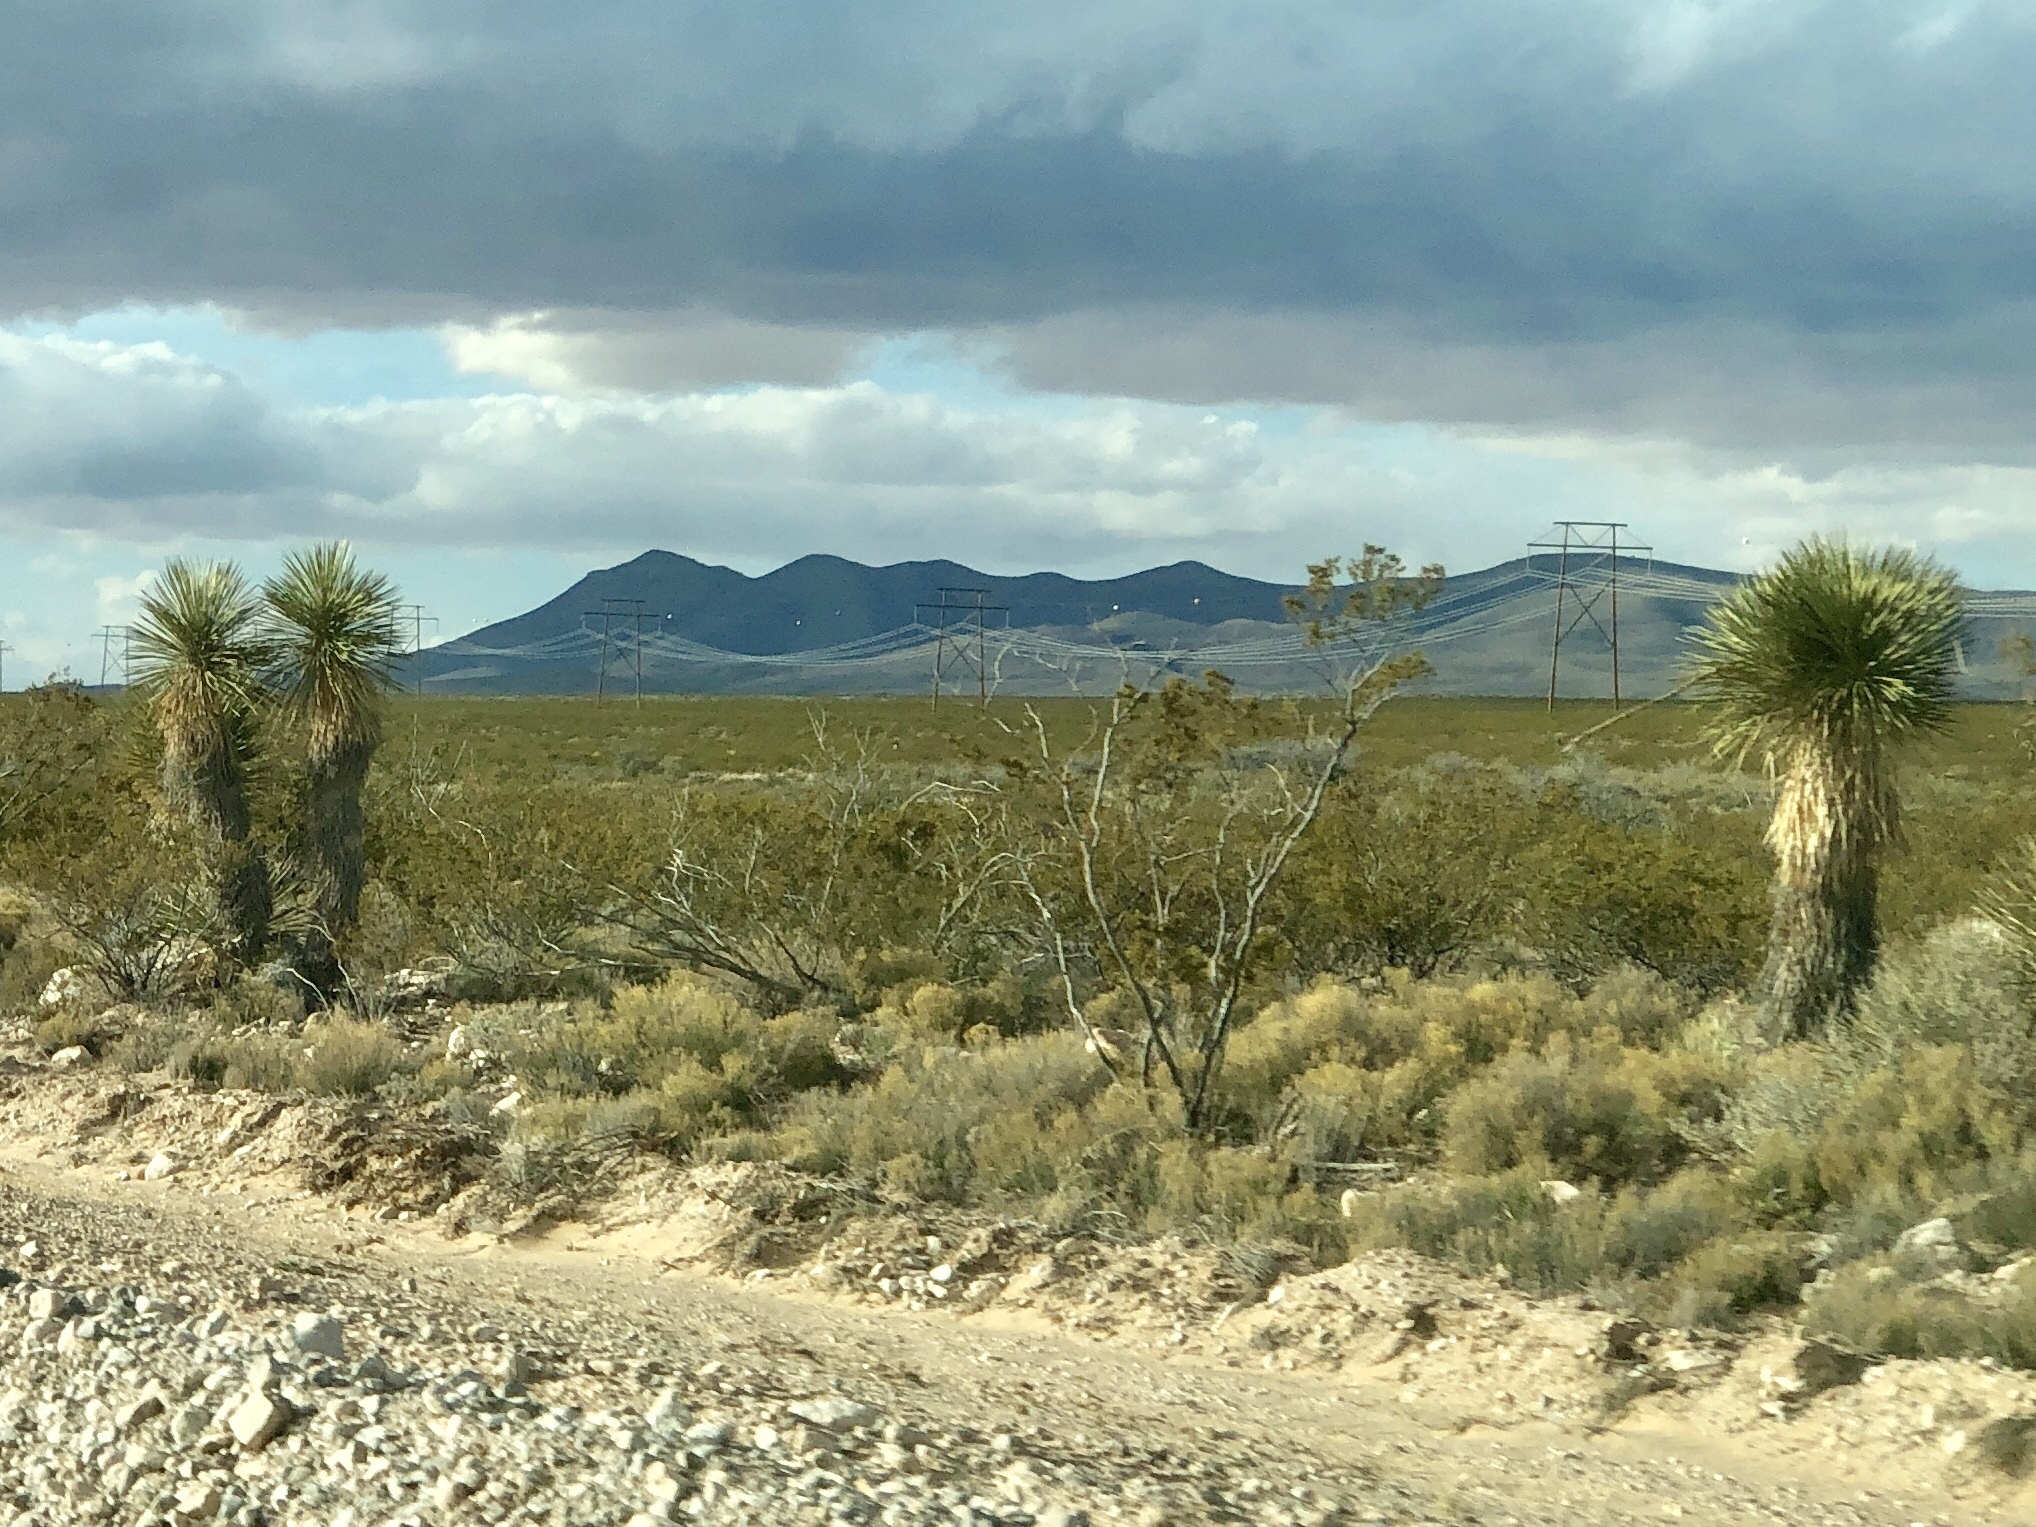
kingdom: Plantae
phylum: Tracheophyta
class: Liliopsida
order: Asparagales
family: Asparagaceae
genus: Yucca
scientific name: Yucca elata
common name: Palmella
